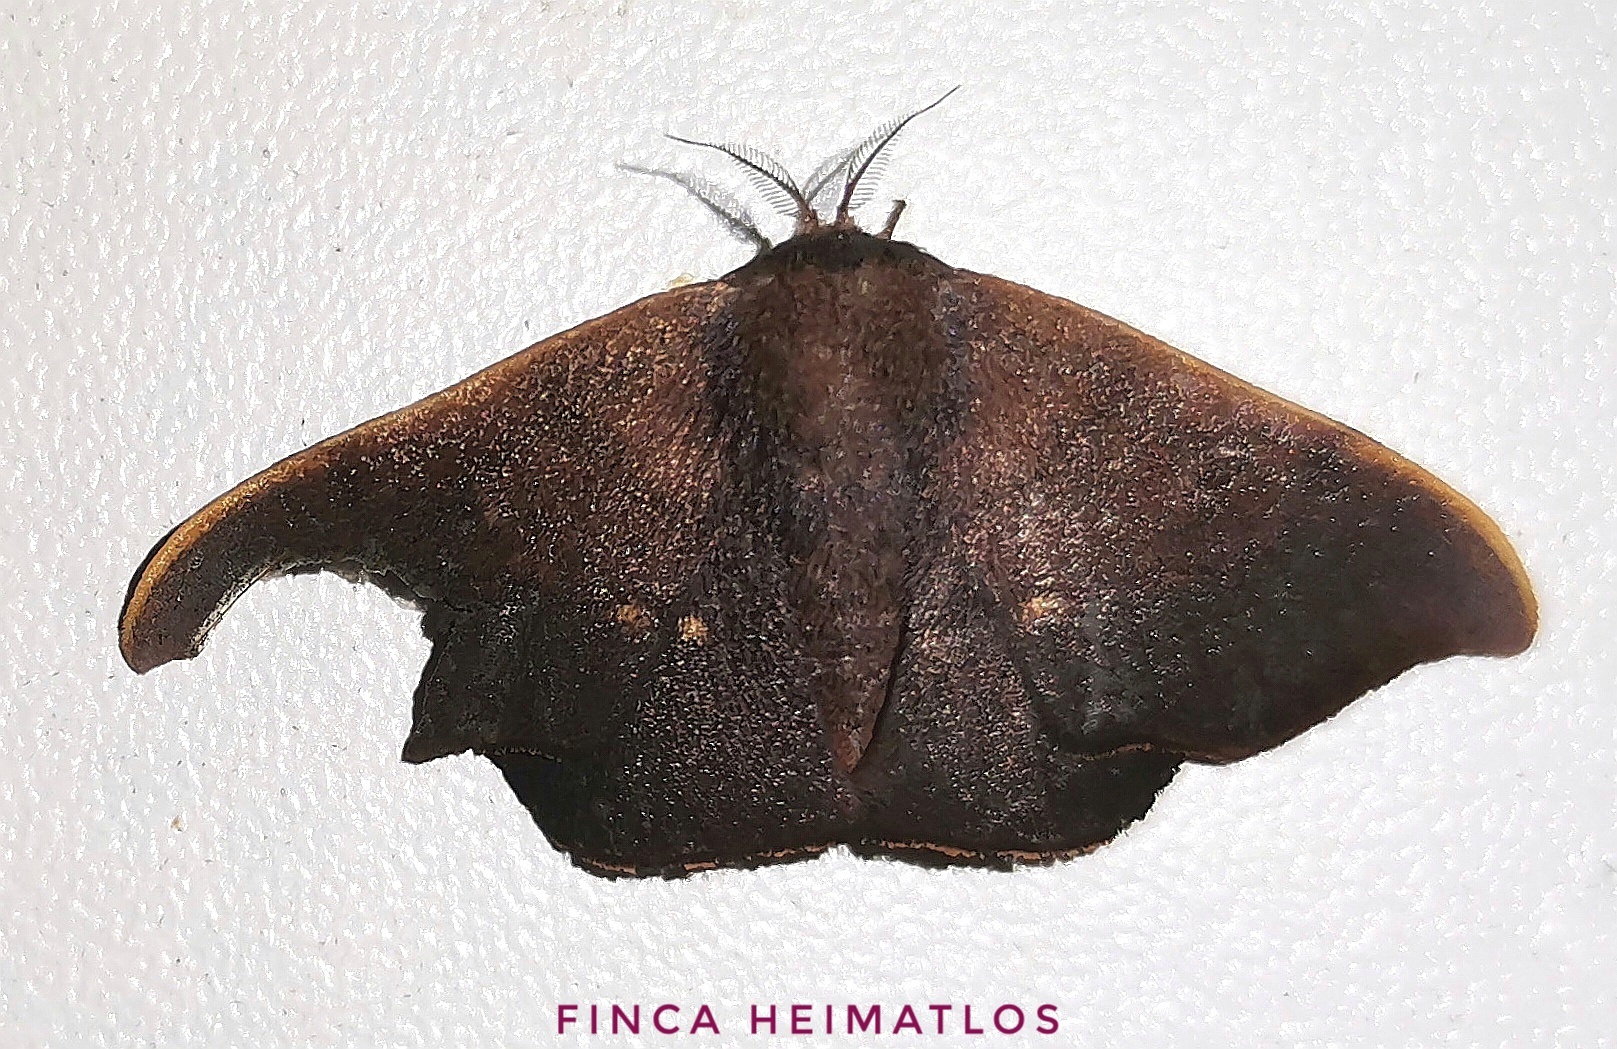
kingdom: Animalia
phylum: Arthropoda
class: Insecta
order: Lepidoptera
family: Mimallonidae
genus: Alheita
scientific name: Alheita rionica
